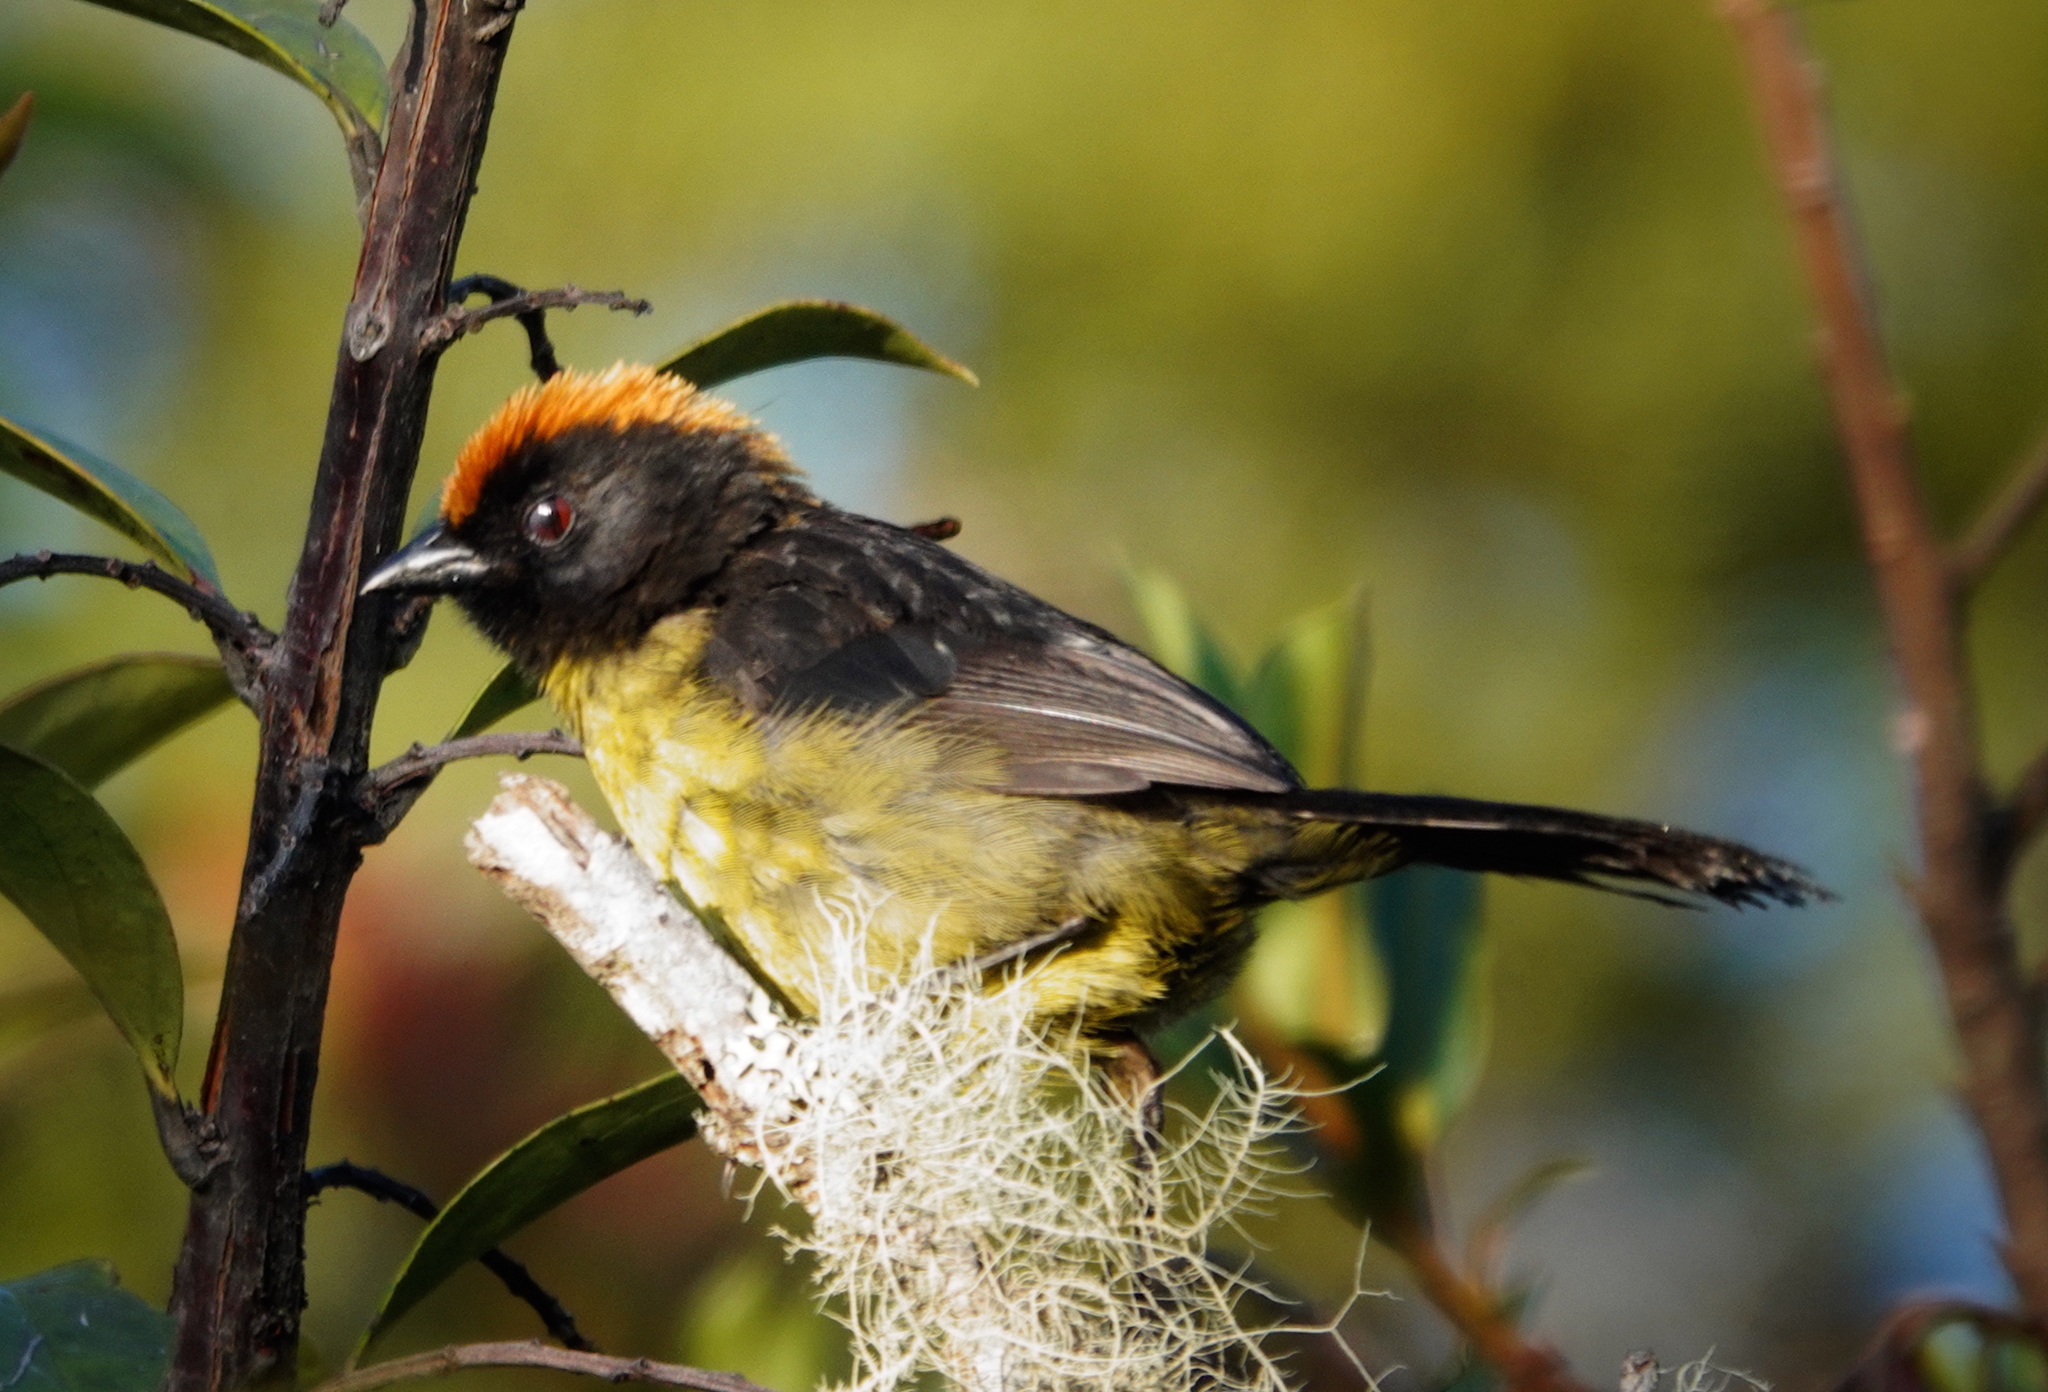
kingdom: Animalia
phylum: Chordata
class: Aves
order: Passeriformes
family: Passerellidae
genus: Atlapetes
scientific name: Atlapetes melanolaemus
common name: Grey-eared brush finch
